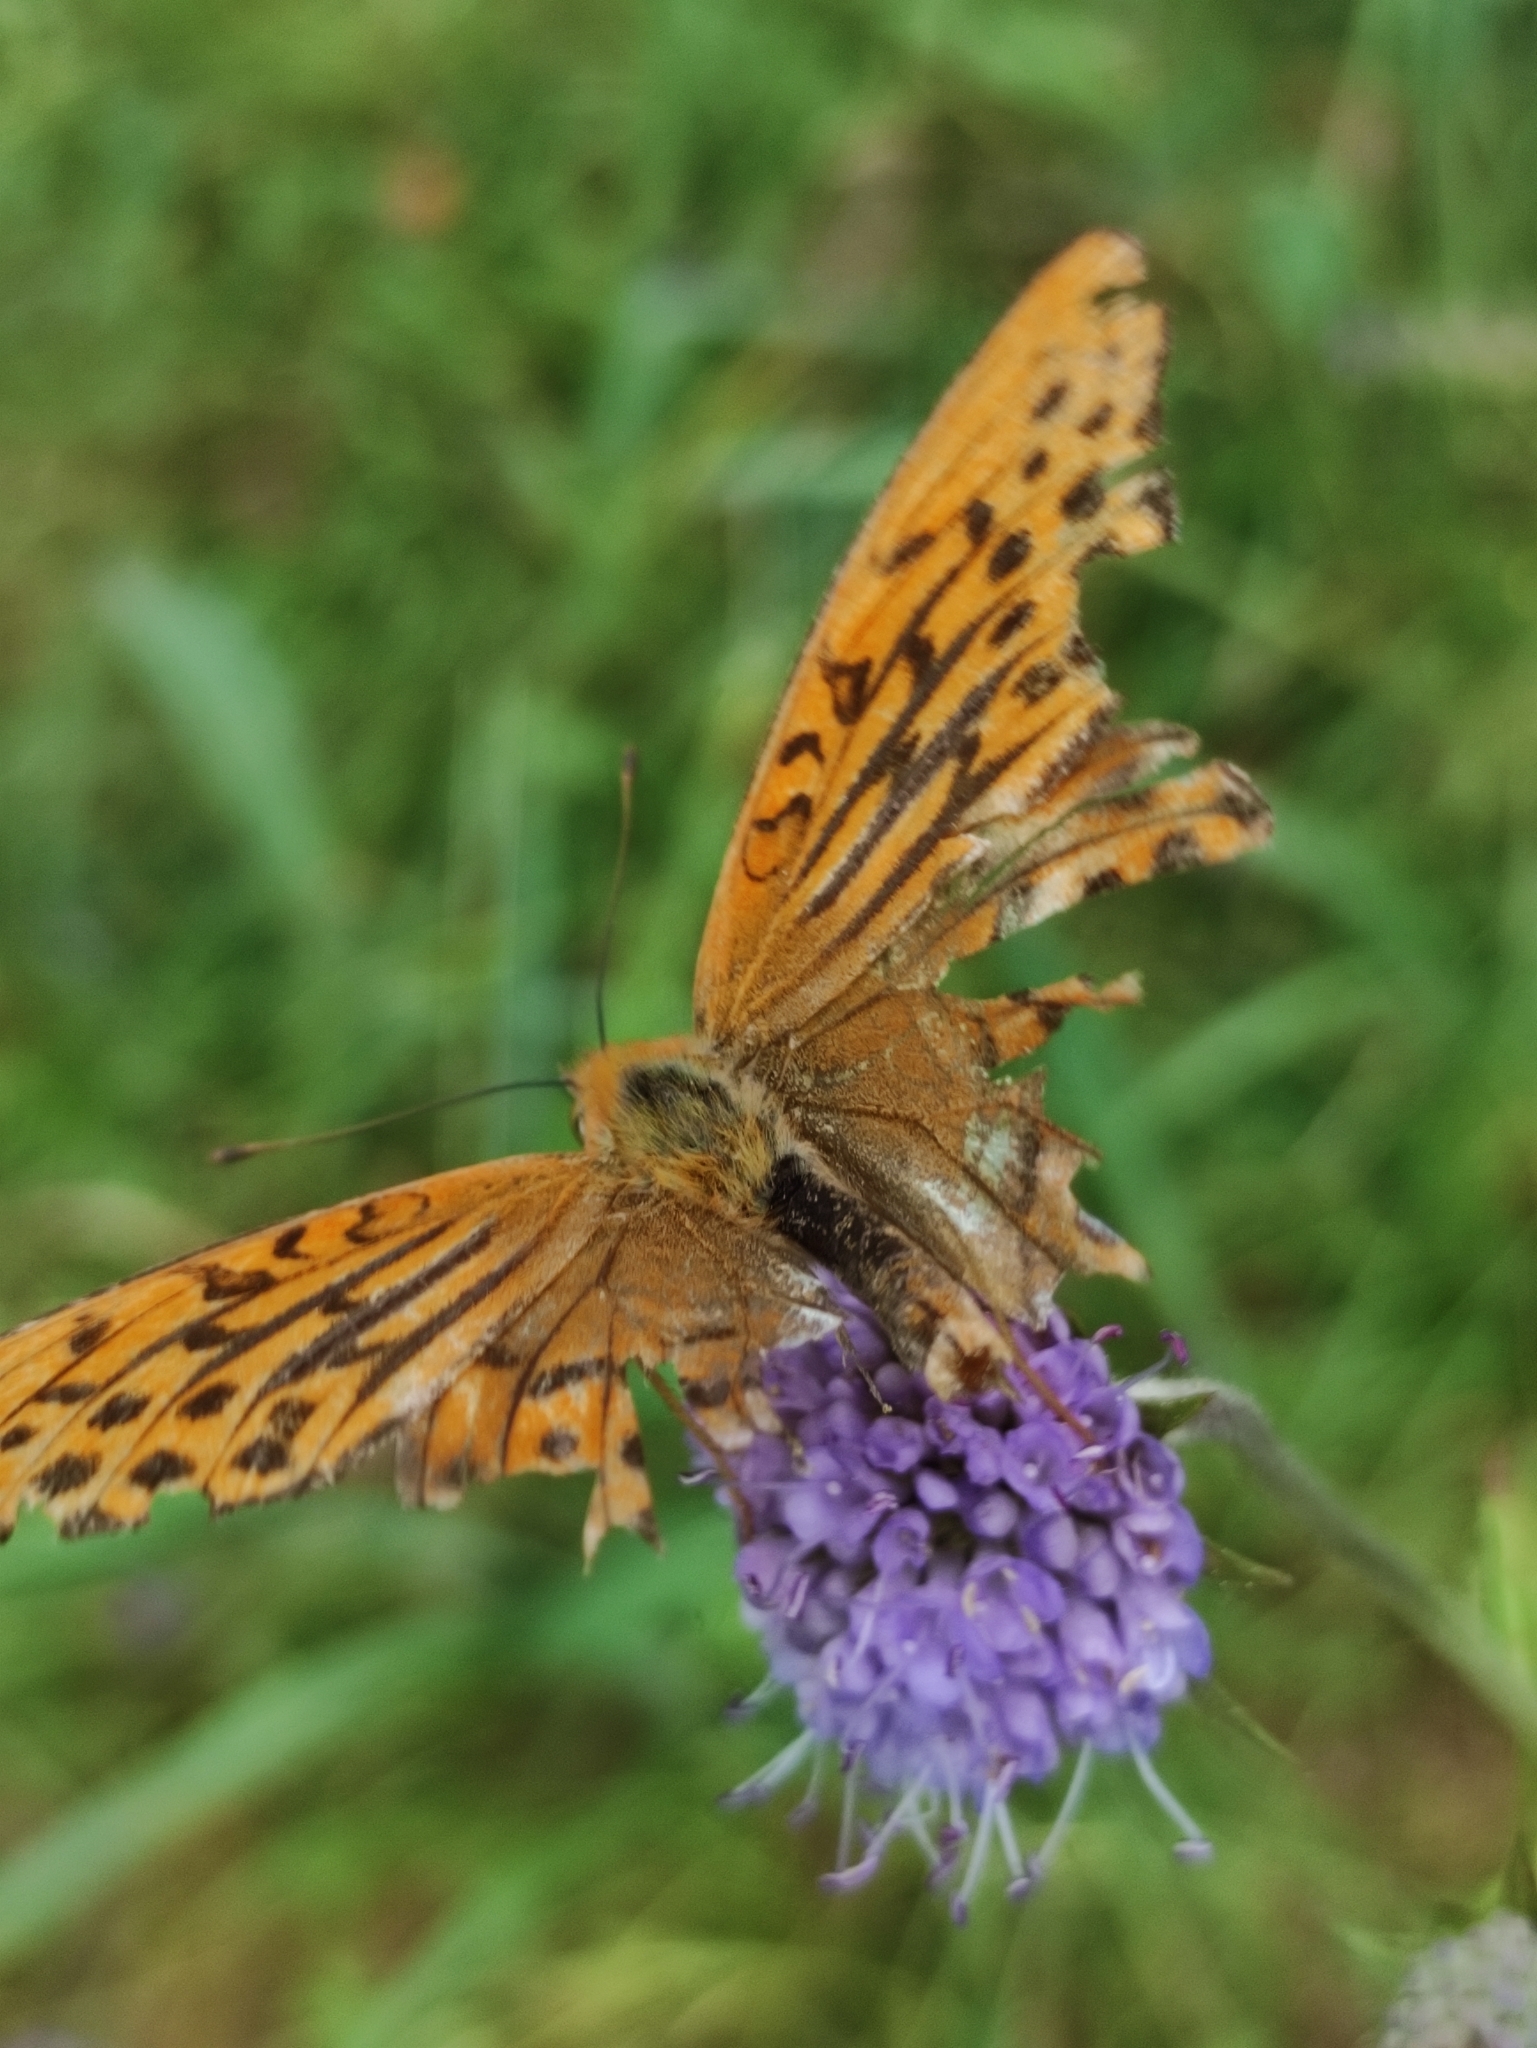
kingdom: Animalia
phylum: Arthropoda
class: Insecta
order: Lepidoptera
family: Nymphalidae
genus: Argynnis
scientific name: Argynnis paphia
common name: Silver-washed fritillary
